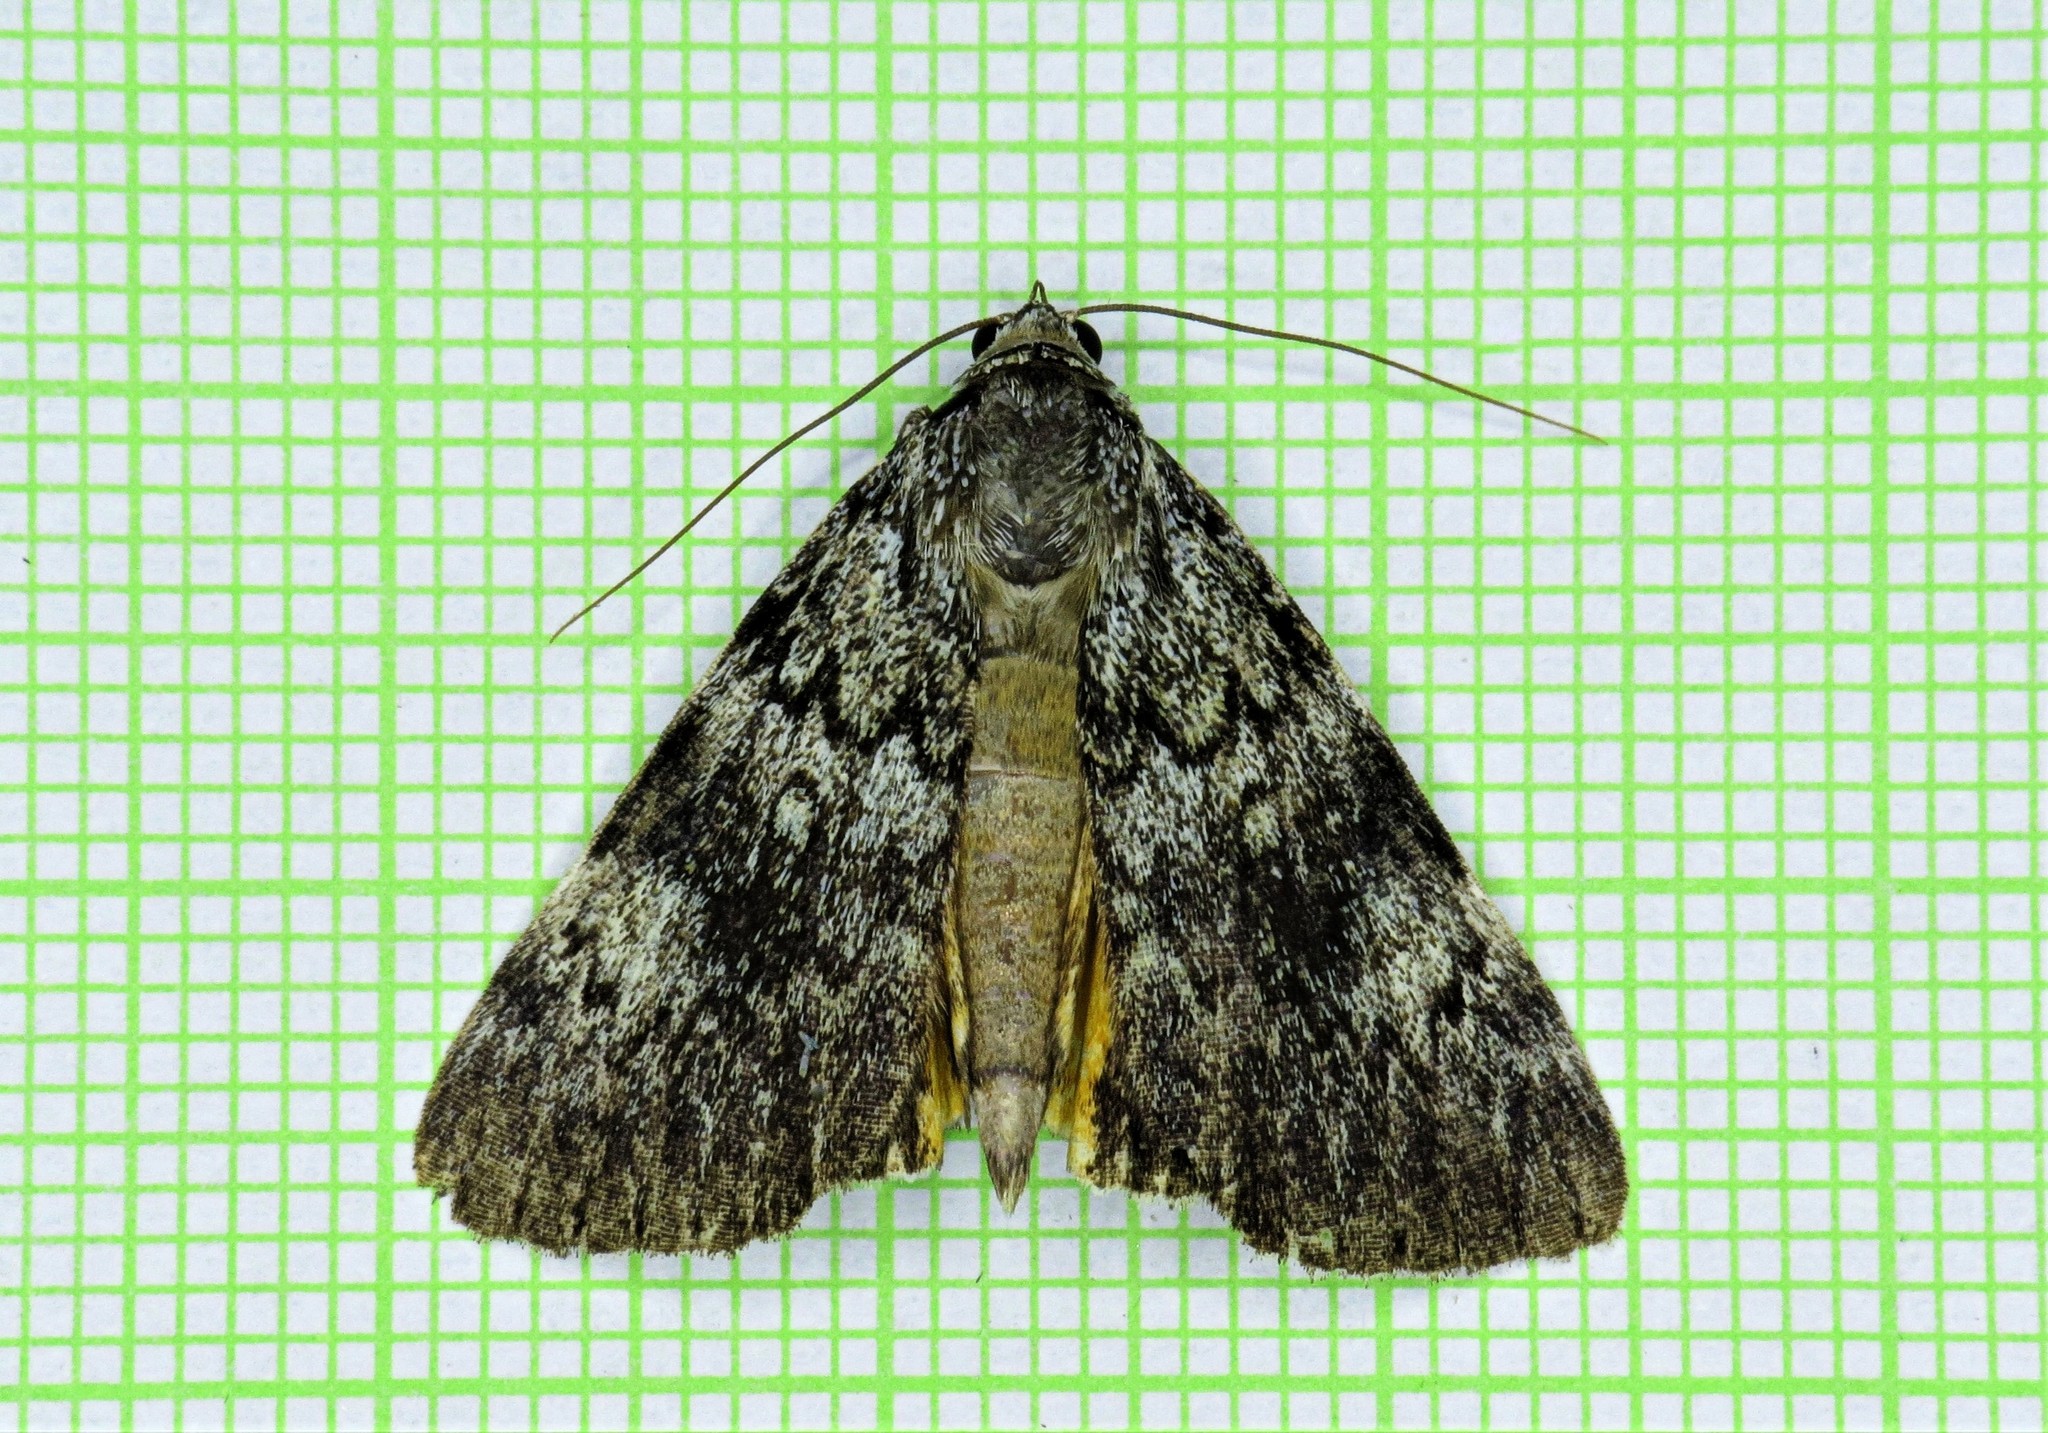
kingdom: Animalia
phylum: Arthropoda
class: Insecta
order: Lepidoptera
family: Erebidae
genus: Catocala
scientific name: Catocala lineella
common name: Little lined underwing
